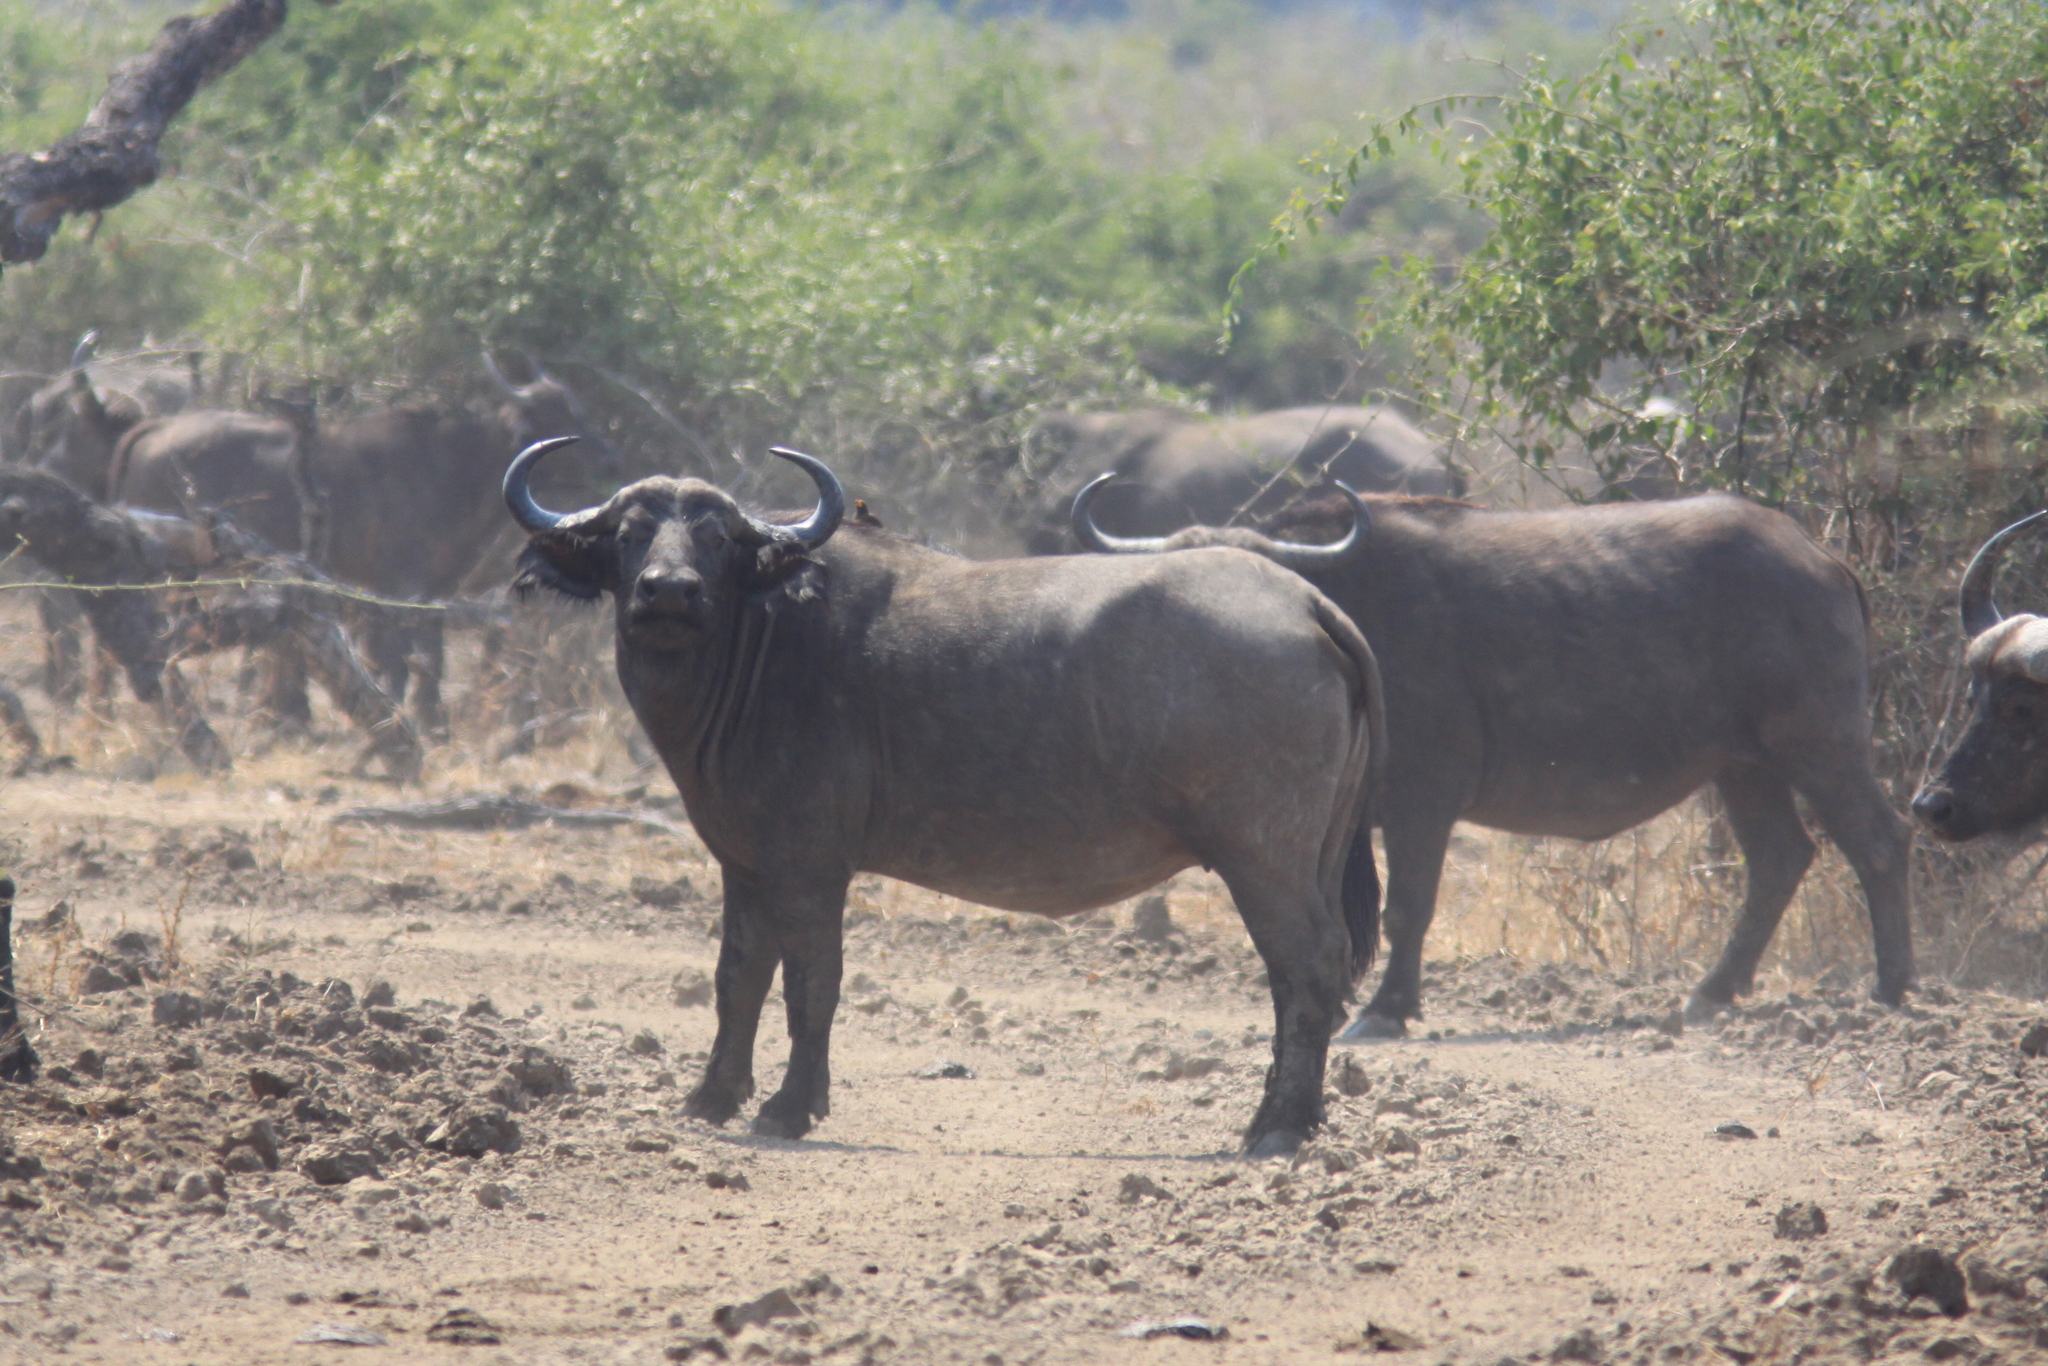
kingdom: Animalia
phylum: Chordata
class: Mammalia
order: Artiodactyla
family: Bovidae
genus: Syncerus
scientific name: Syncerus caffer
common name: African buffalo
